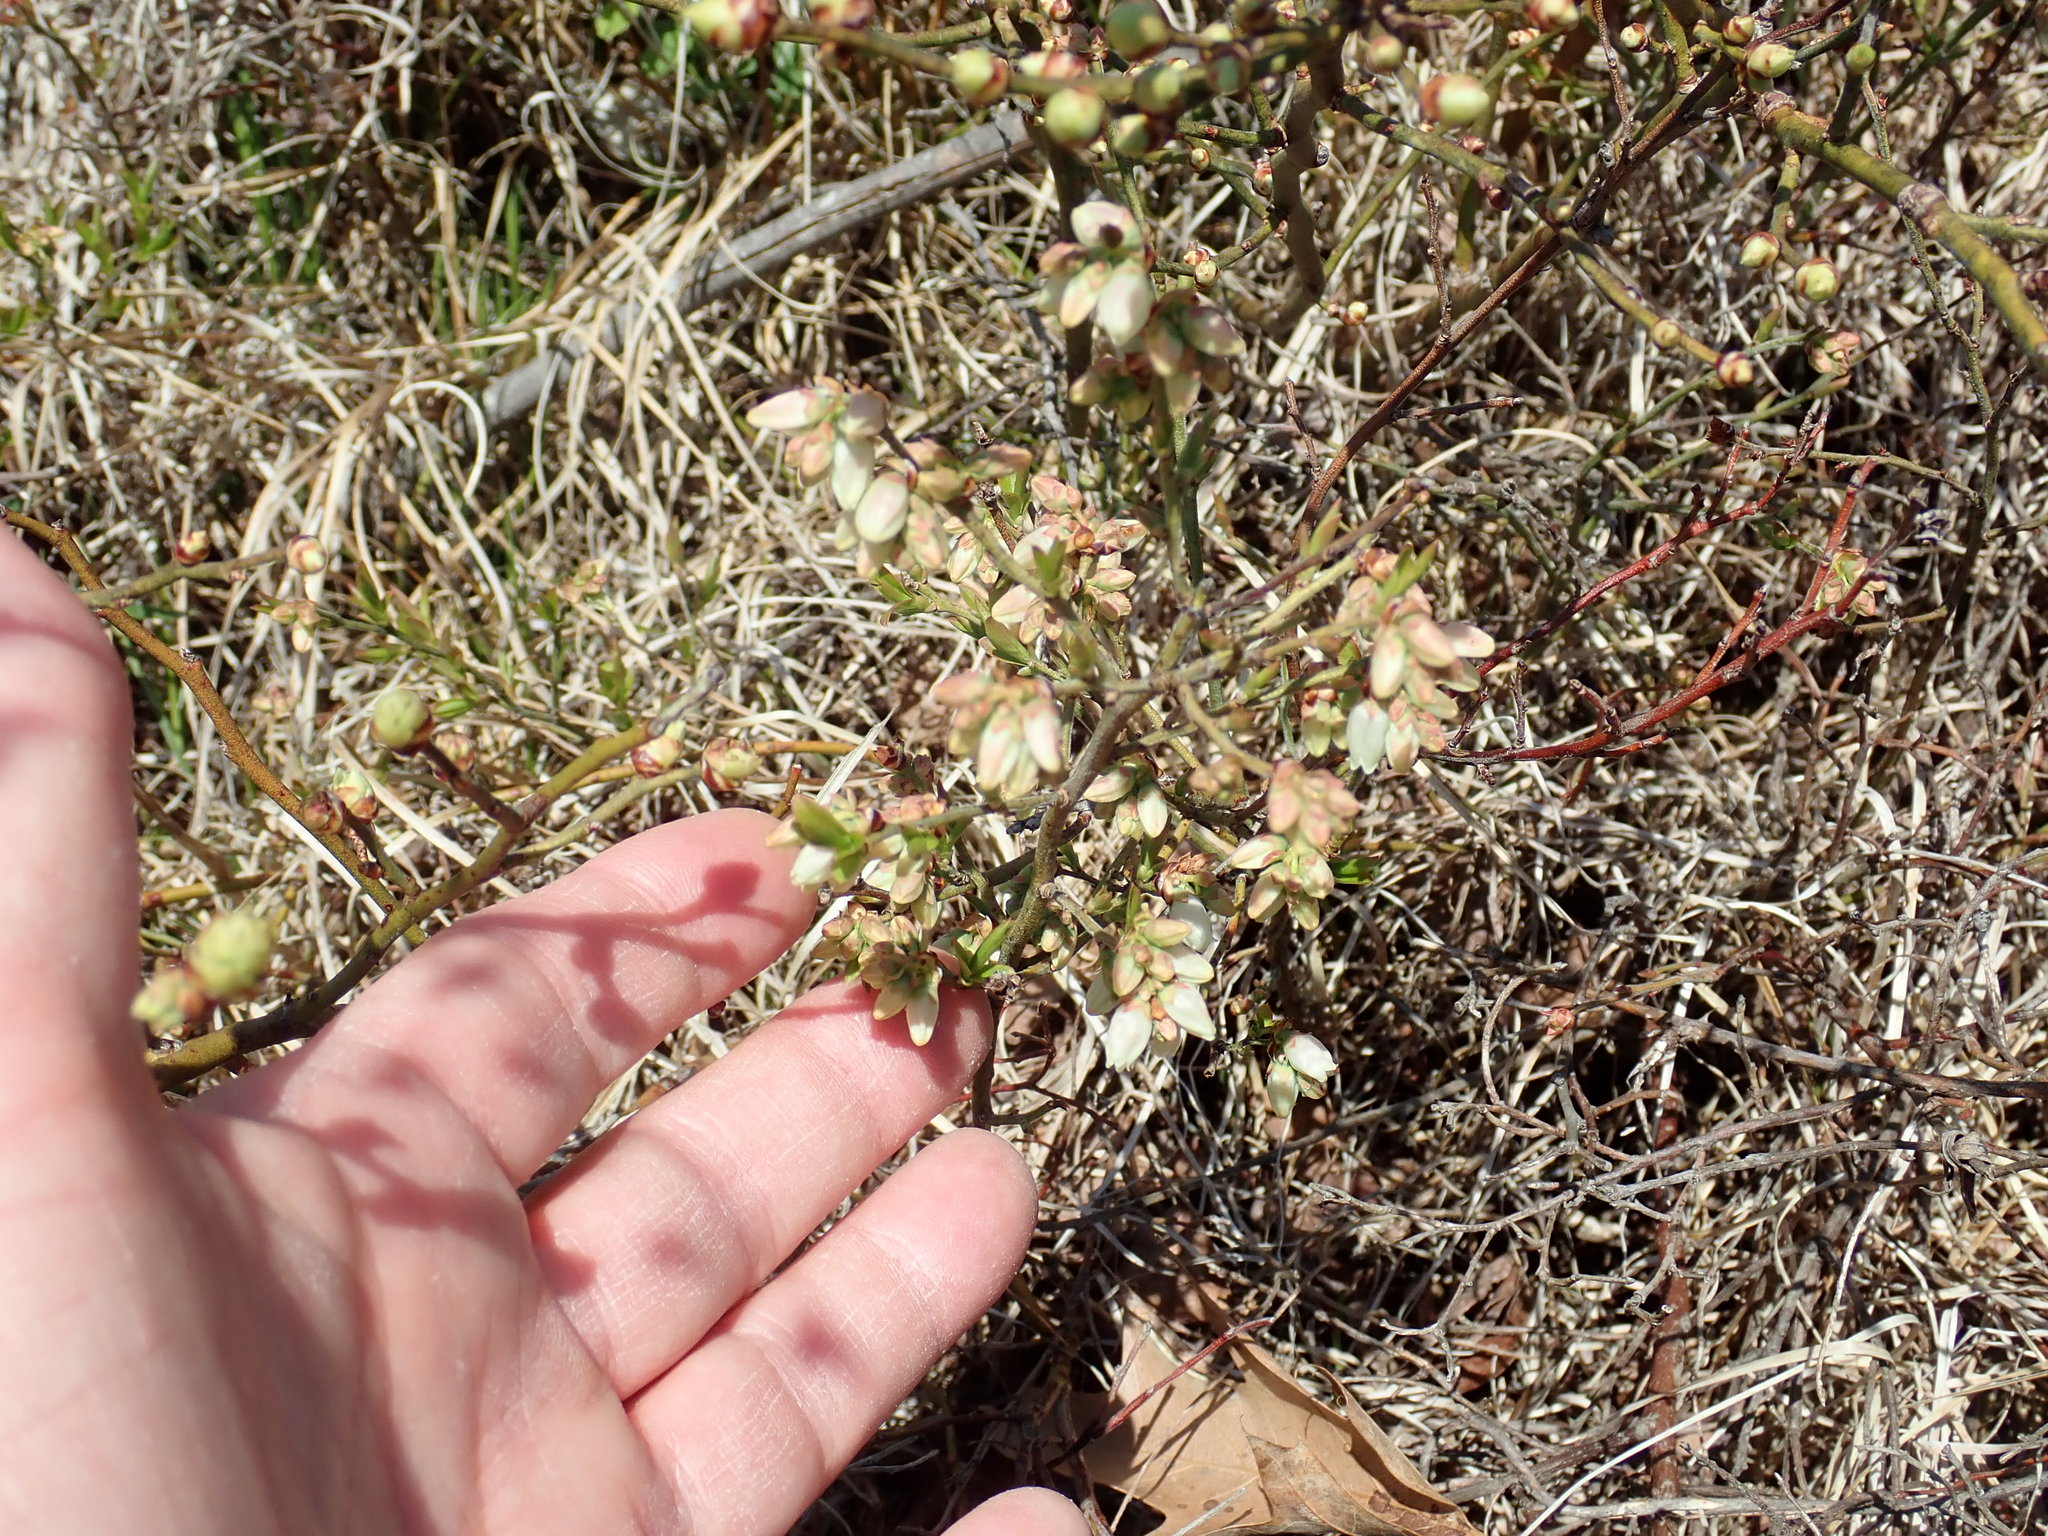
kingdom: Plantae
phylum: Tracheophyta
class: Magnoliopsida
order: Ericales
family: Ericaceae
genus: Vaccinium
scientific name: Vaccinium angustifolium
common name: Early lowbush blueberry
